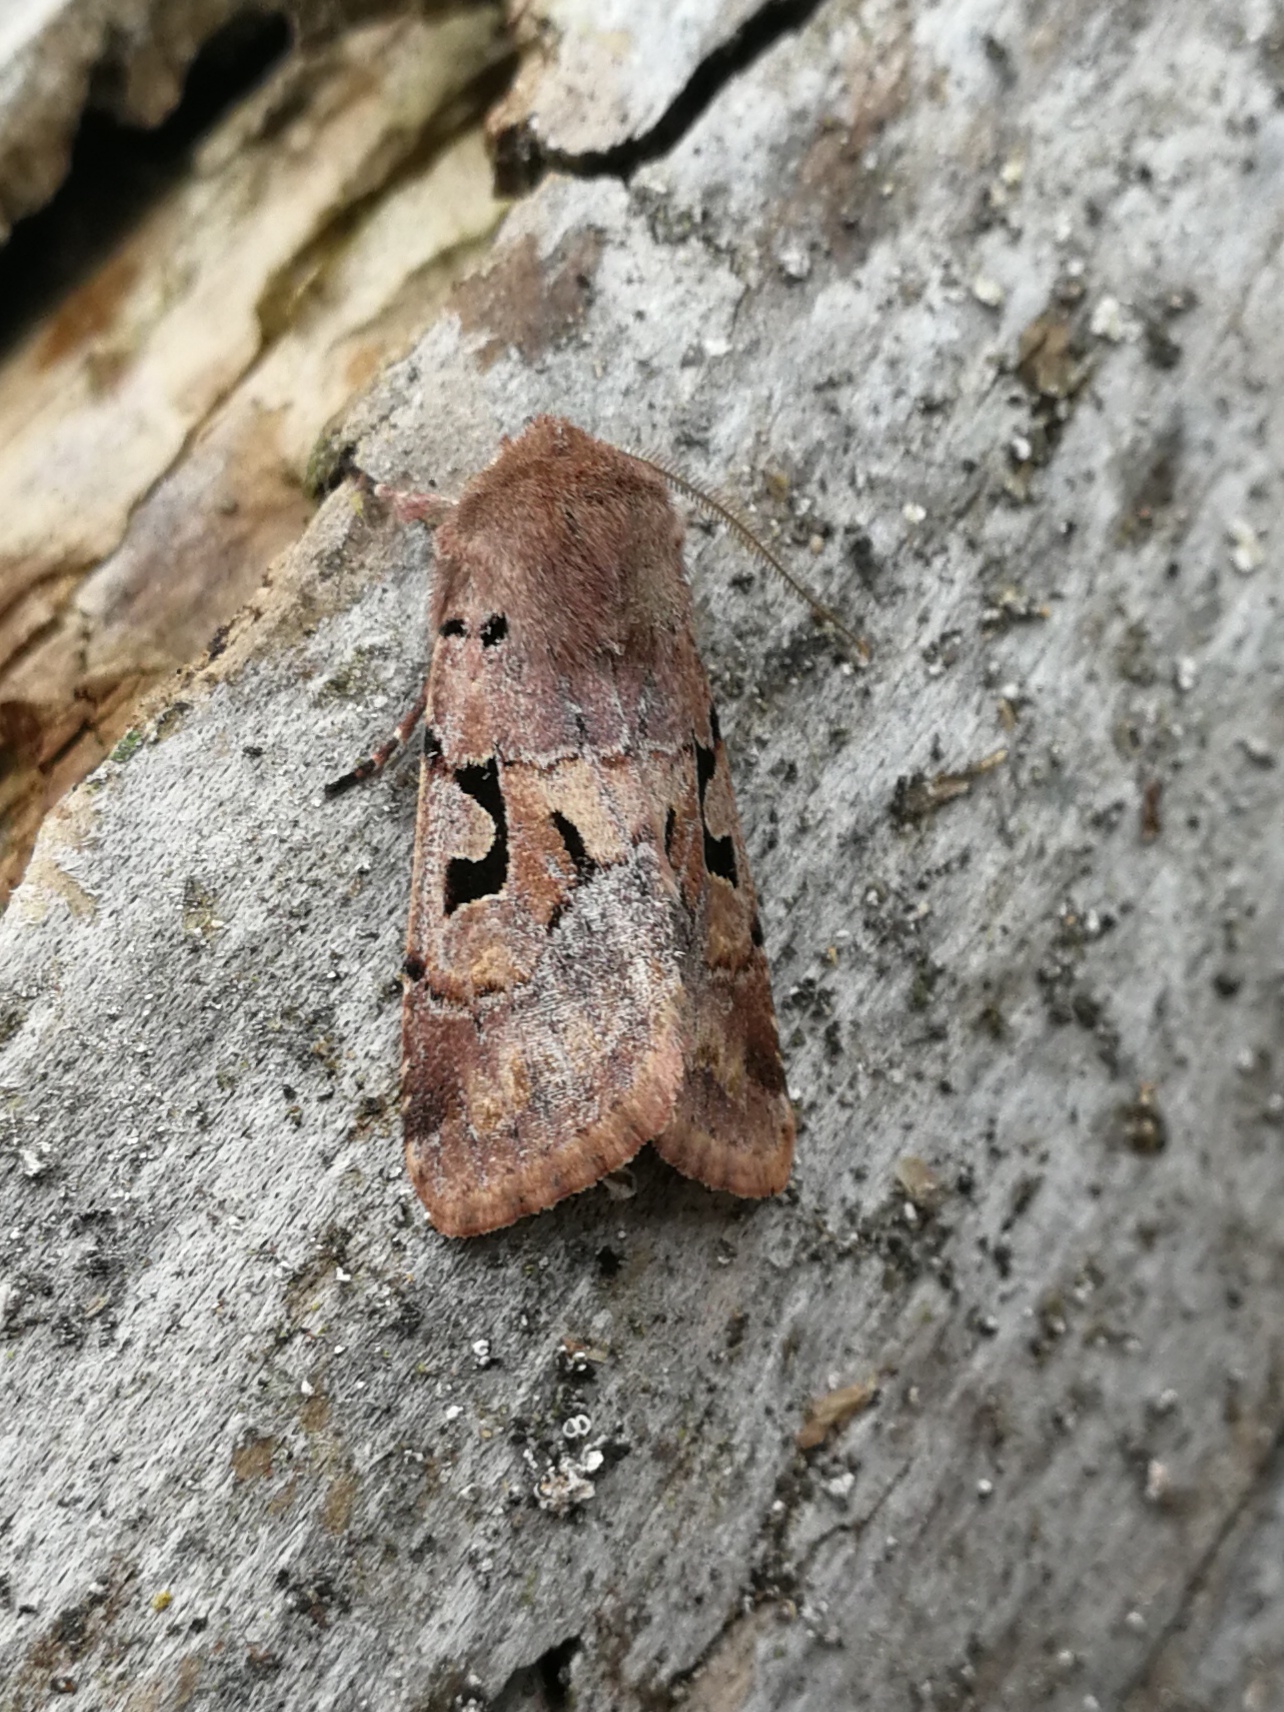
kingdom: Animalia
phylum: Arthropoda
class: Insecta
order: Lepidoptera
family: Noctuidae
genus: Orthosia
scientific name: Orthosia gothica
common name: Hebrew character
